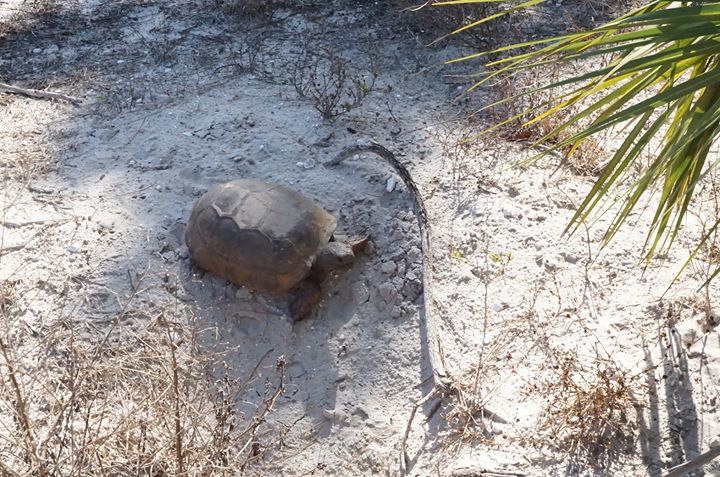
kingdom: Animalia
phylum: Chordata
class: Testudines
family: Testudinidae
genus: Gopherus
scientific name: Gopherus polyphemus
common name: Florida gopher tortoise
